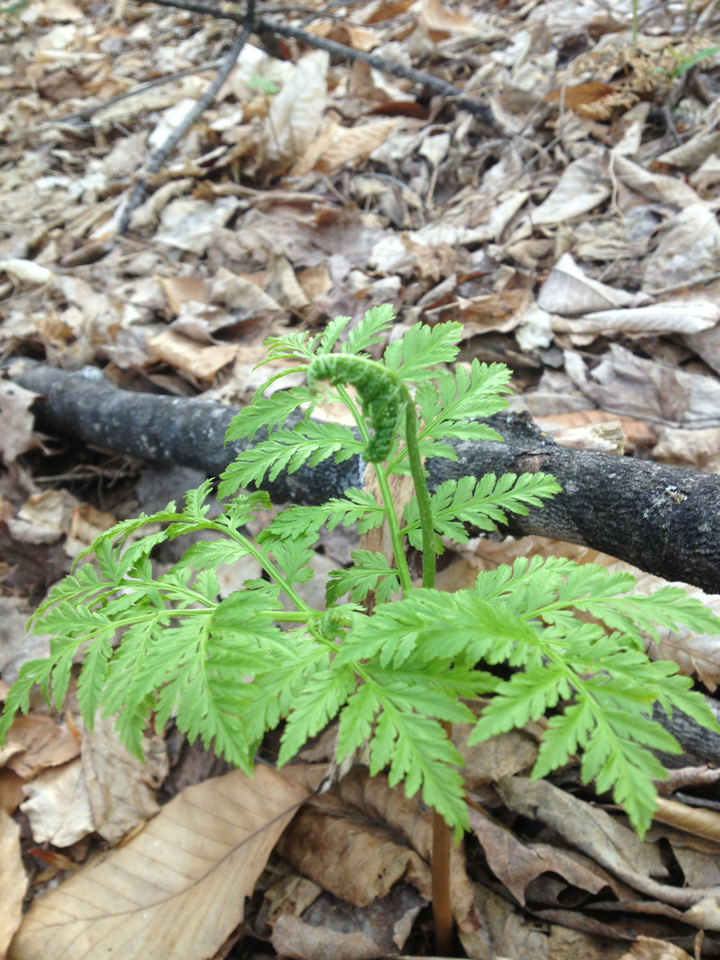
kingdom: Plantae
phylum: Tracheophyta
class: Polypodiopsida
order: Ophioglossales
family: Ophioglossaceae
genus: Botrypus
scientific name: Botrypus virginianus
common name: Common grapefern
